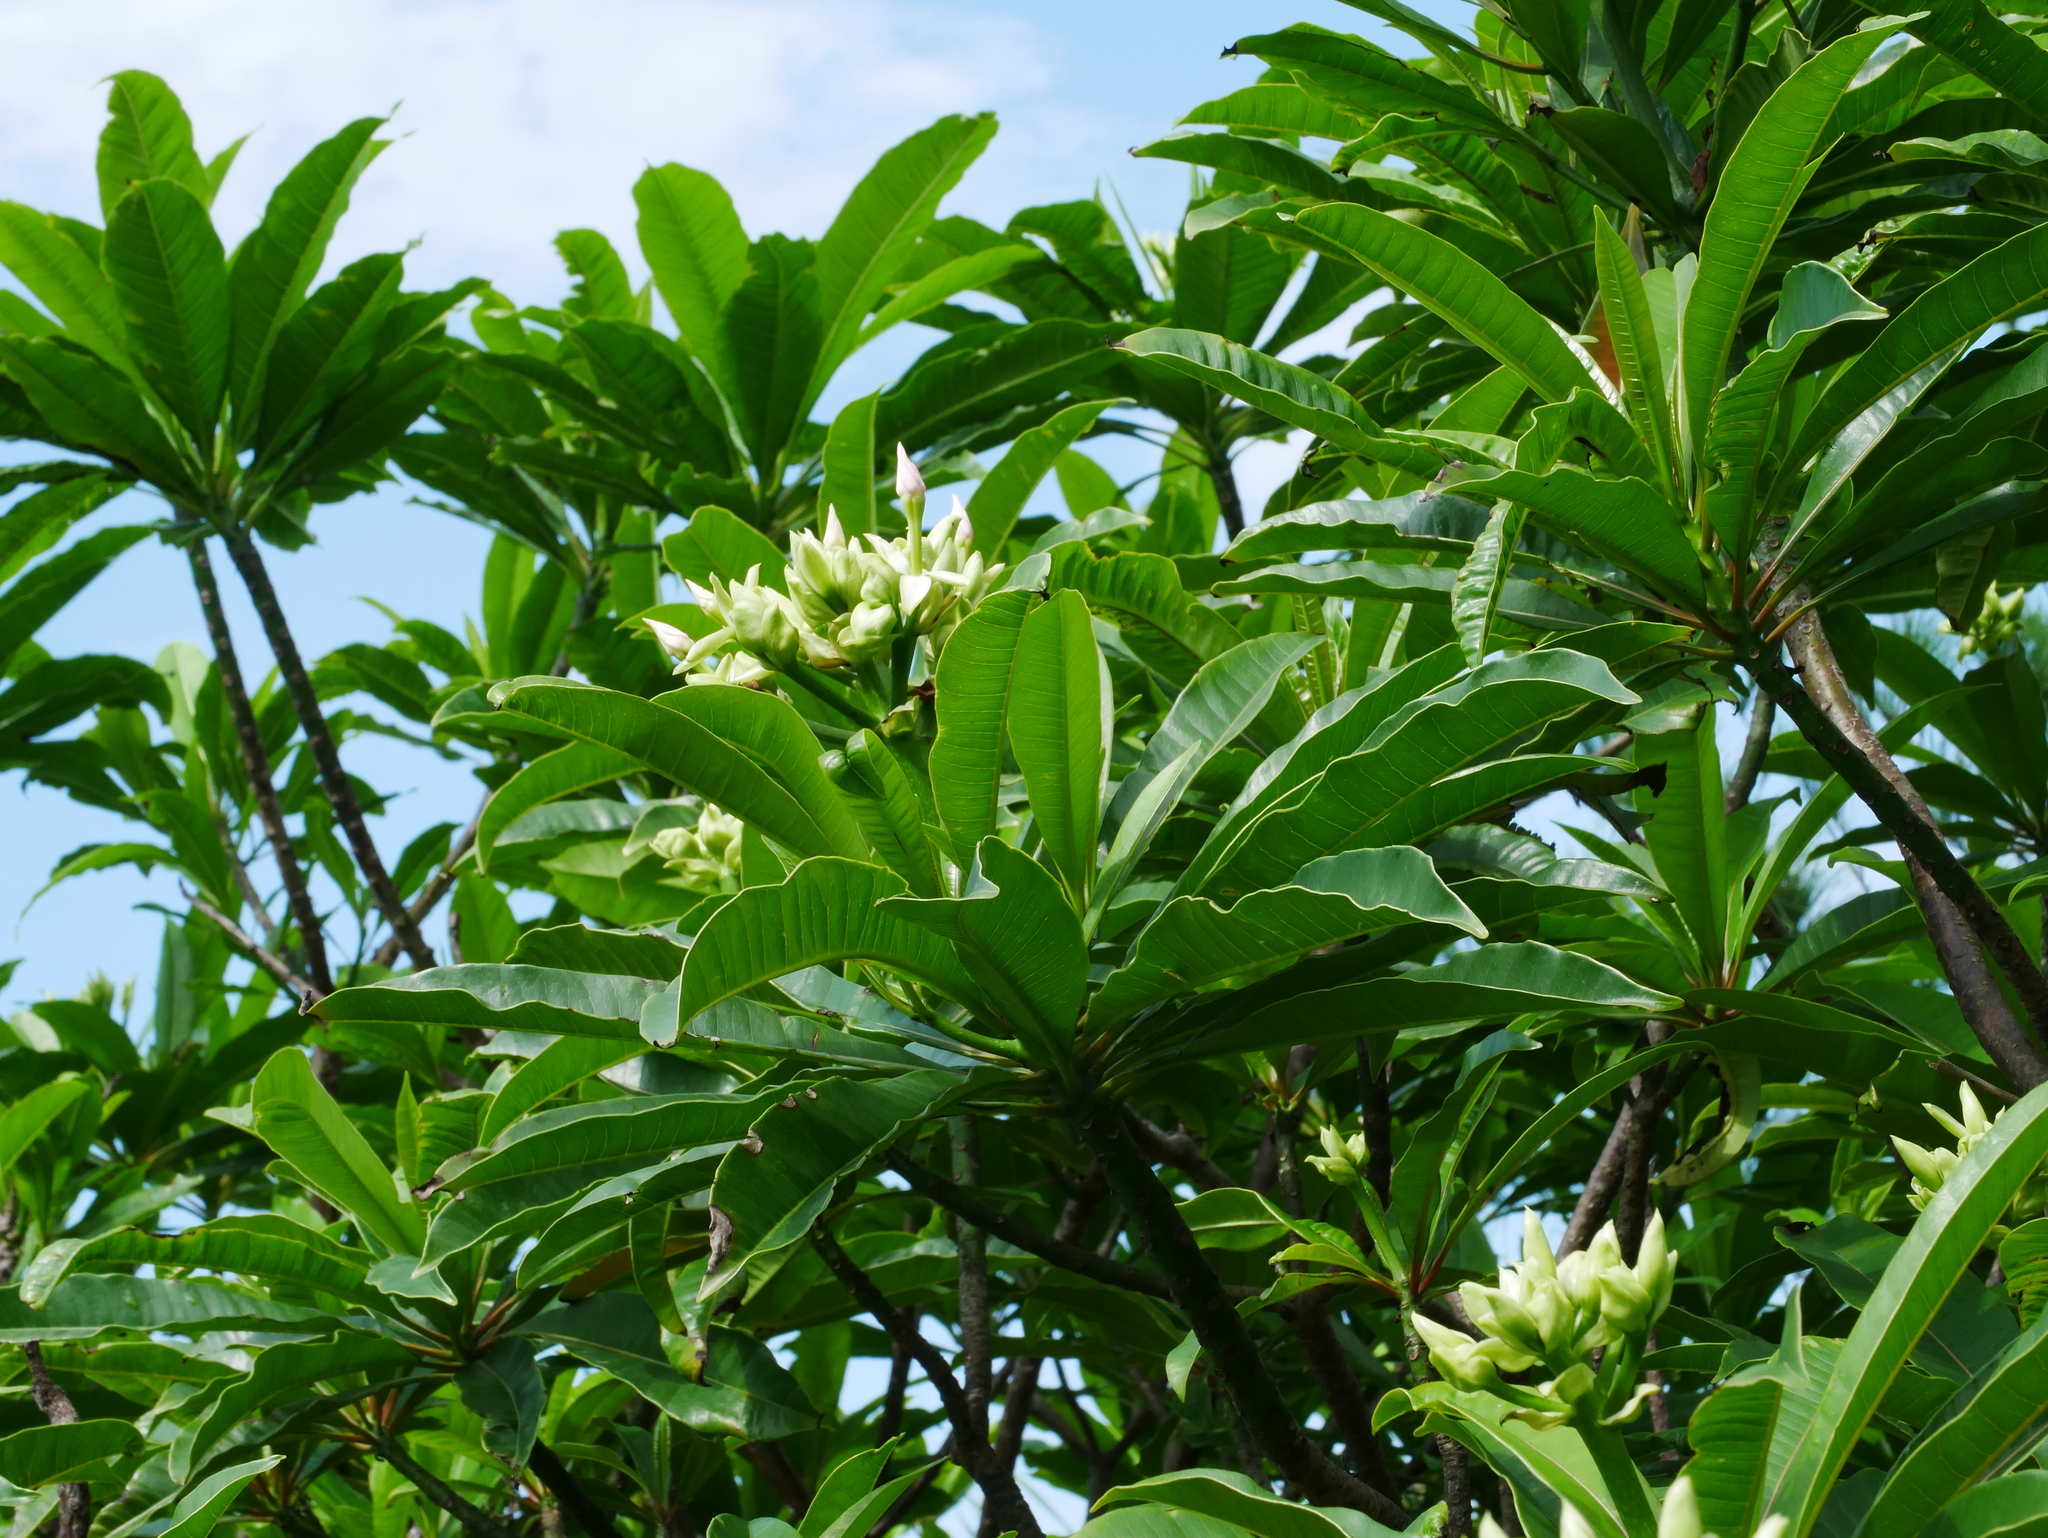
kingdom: Plantae
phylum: Tracheophyta
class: Magnoliopsida
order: Gentianales
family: Apocynaceae
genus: Cerbera
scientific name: Cerbera manghas
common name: Reva
